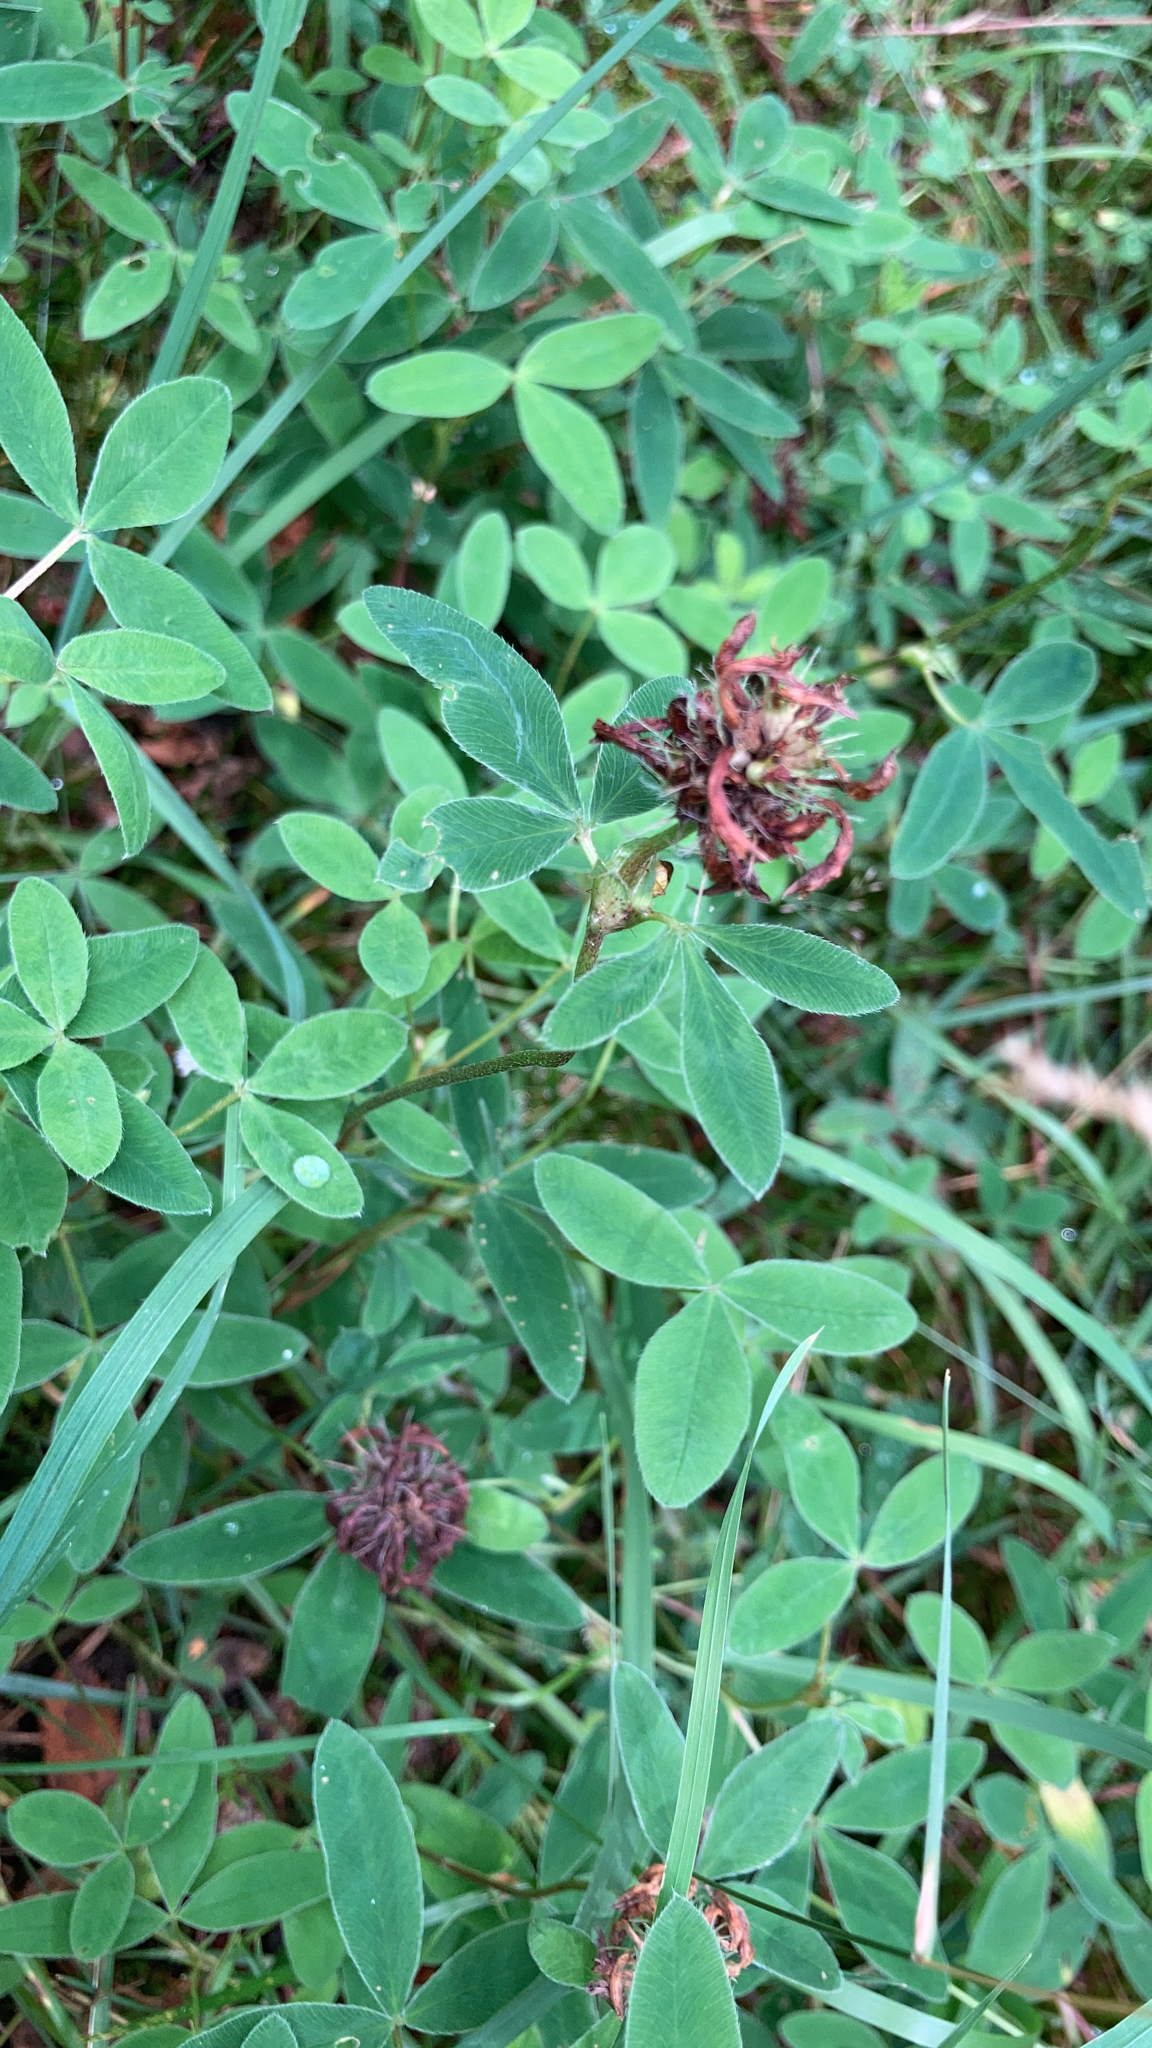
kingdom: Plantae
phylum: Tracheophyta
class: Magnoliopsida
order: Fabales
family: Fabaceae
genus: Trifolium
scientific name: Trifolium medium
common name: Zigzag clover
